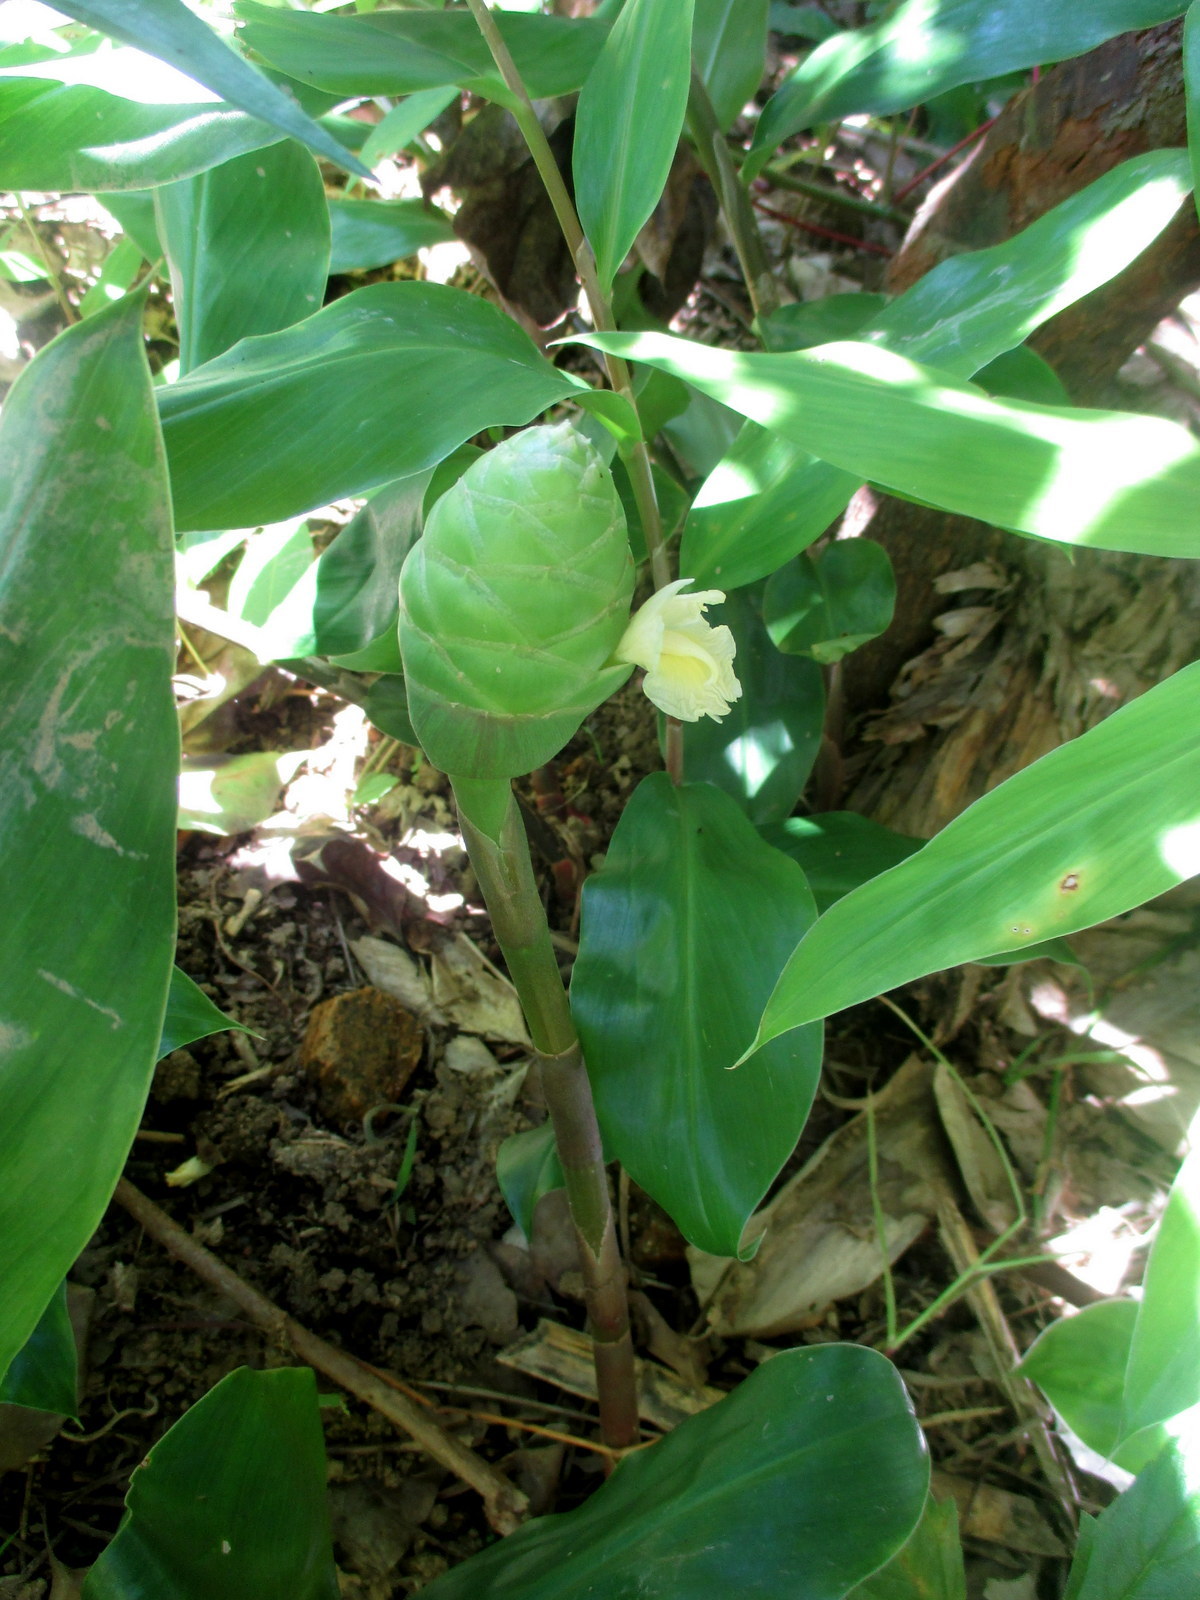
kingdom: Plantae
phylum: Tracheophyta
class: Liliopsida
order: Zingiberales
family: Zingiberaceae
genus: Zingiber
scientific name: Zingiber zerumbet
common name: Bitter ginger
